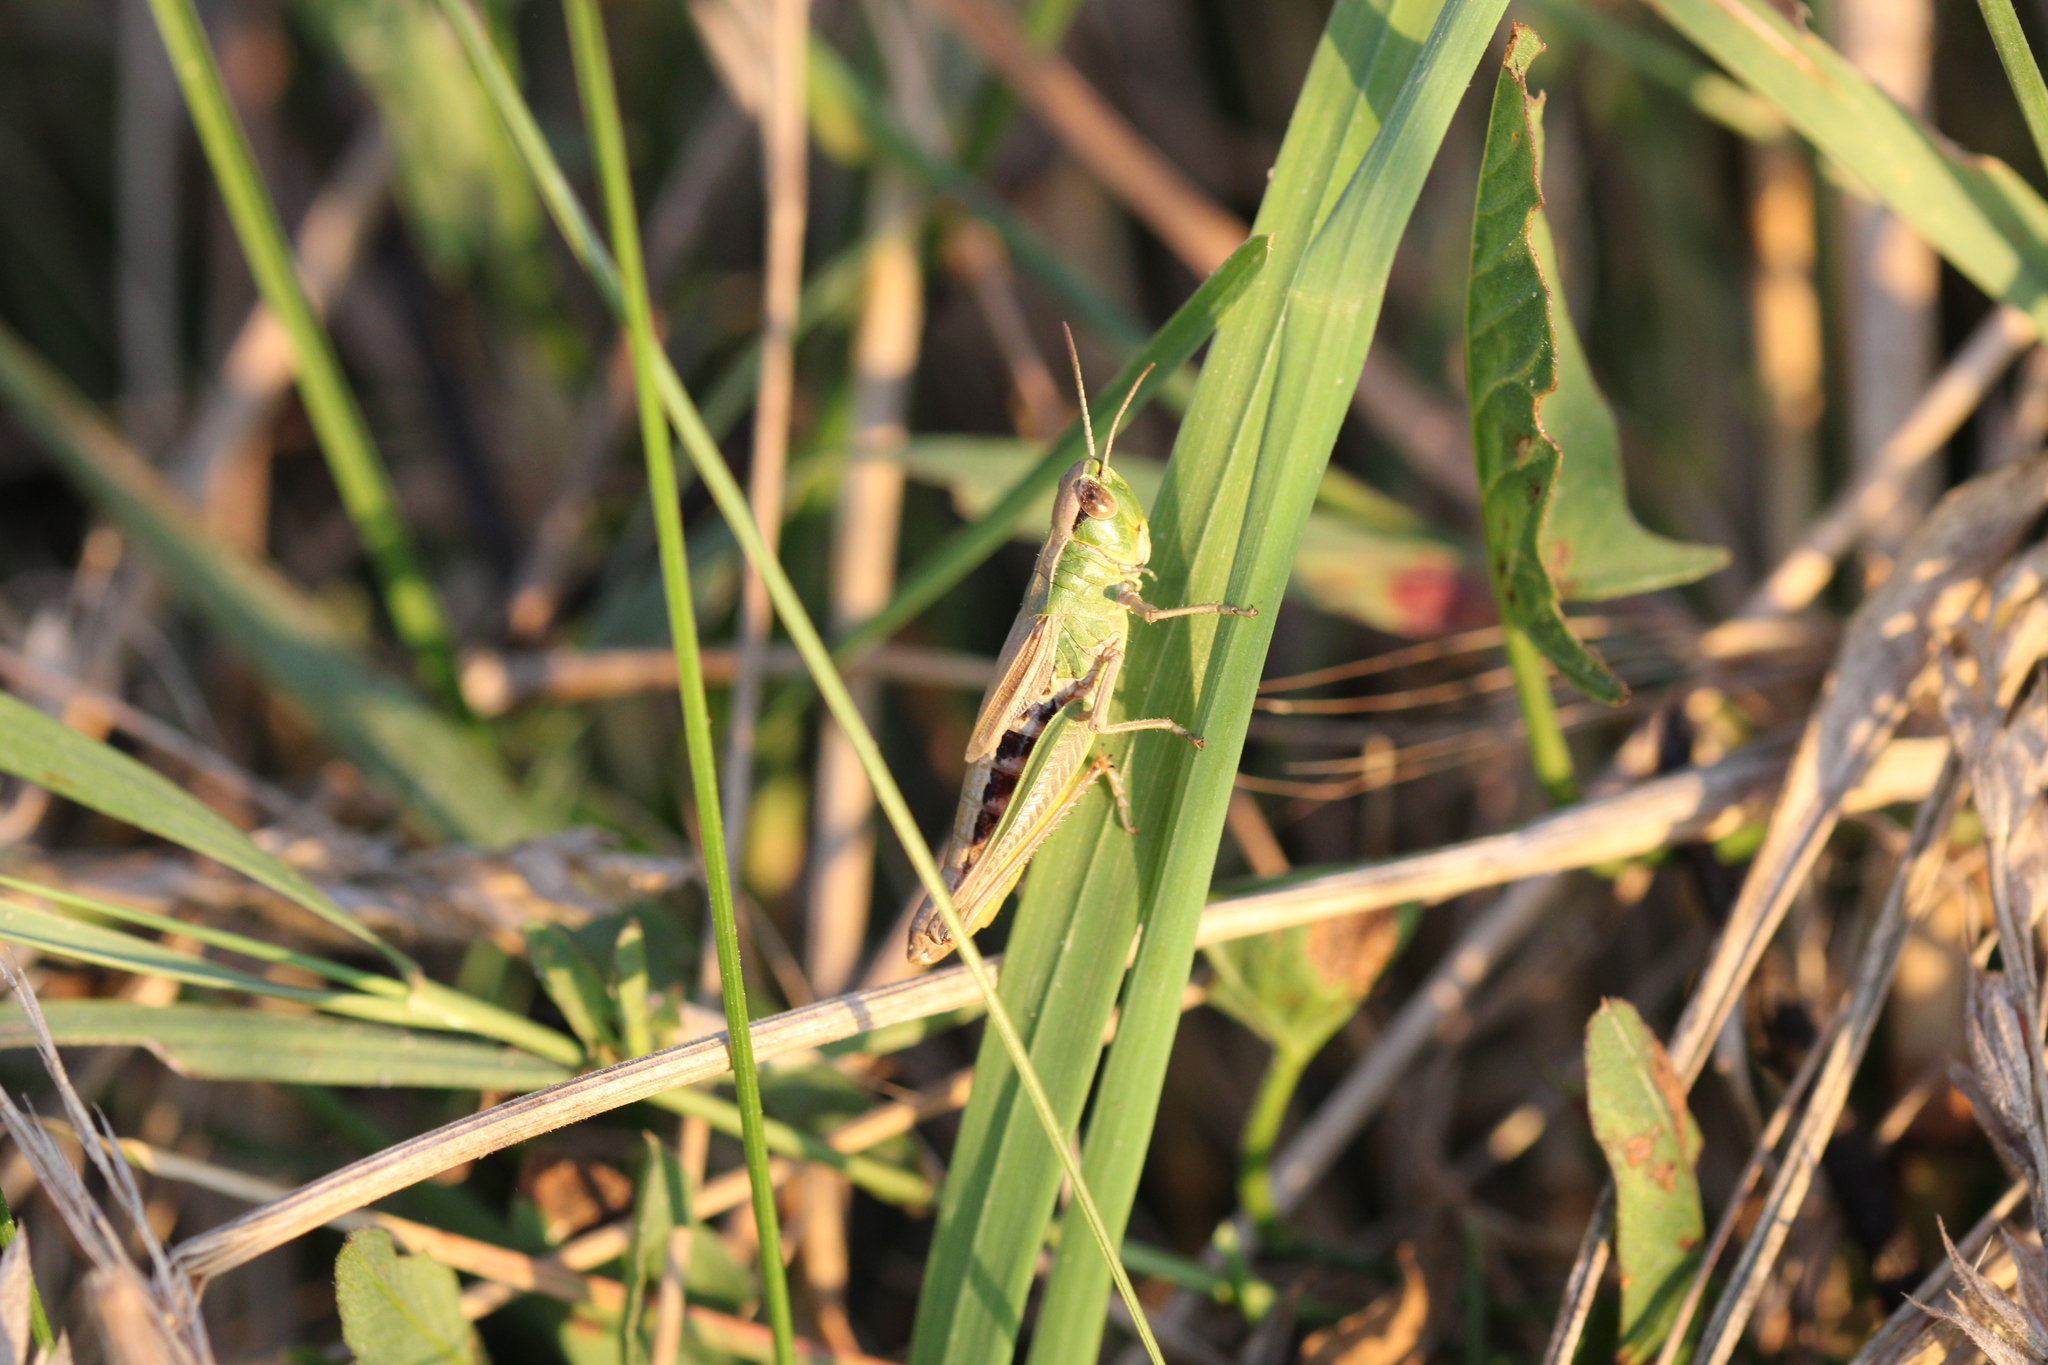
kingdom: Animalia
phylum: Arthropoda
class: Insecta
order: Orthoptera
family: Acrididae
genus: Pseudochorthippus
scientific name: Pseudochorthippus parallelus
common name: Meadow grasshopper
